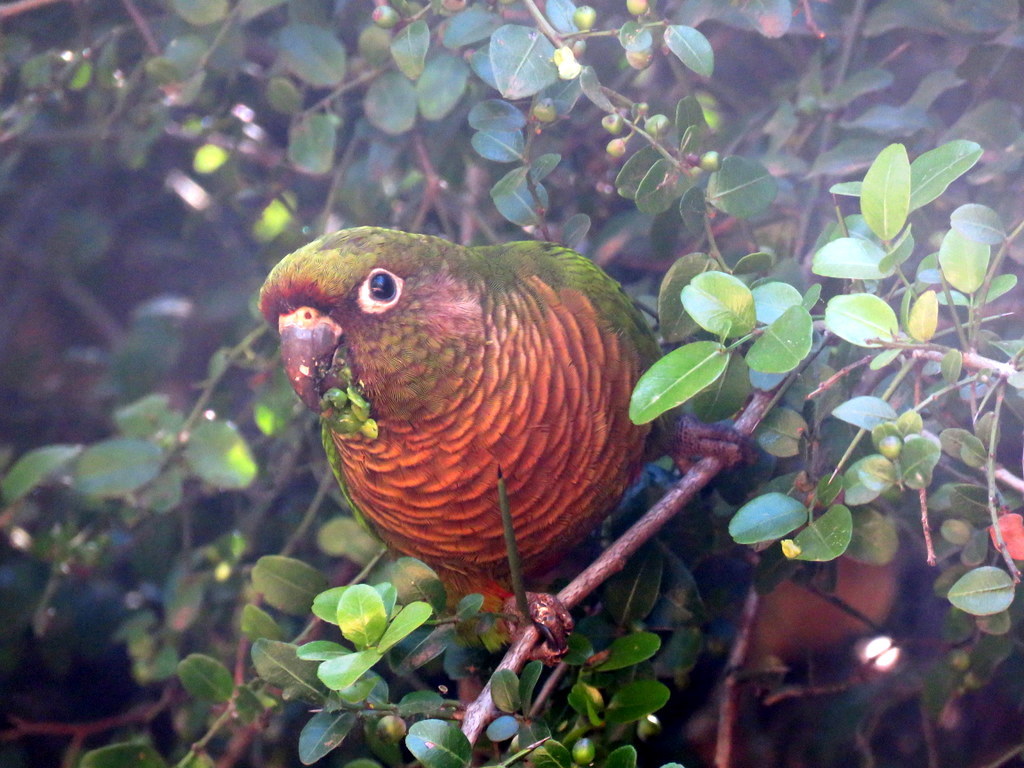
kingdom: Animalia
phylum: Chordata
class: Aves
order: Psittaciformes
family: Psittacidae
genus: Pyrrhura
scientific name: Pyrrhura frontalis
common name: Maroon-bellied parakeet
